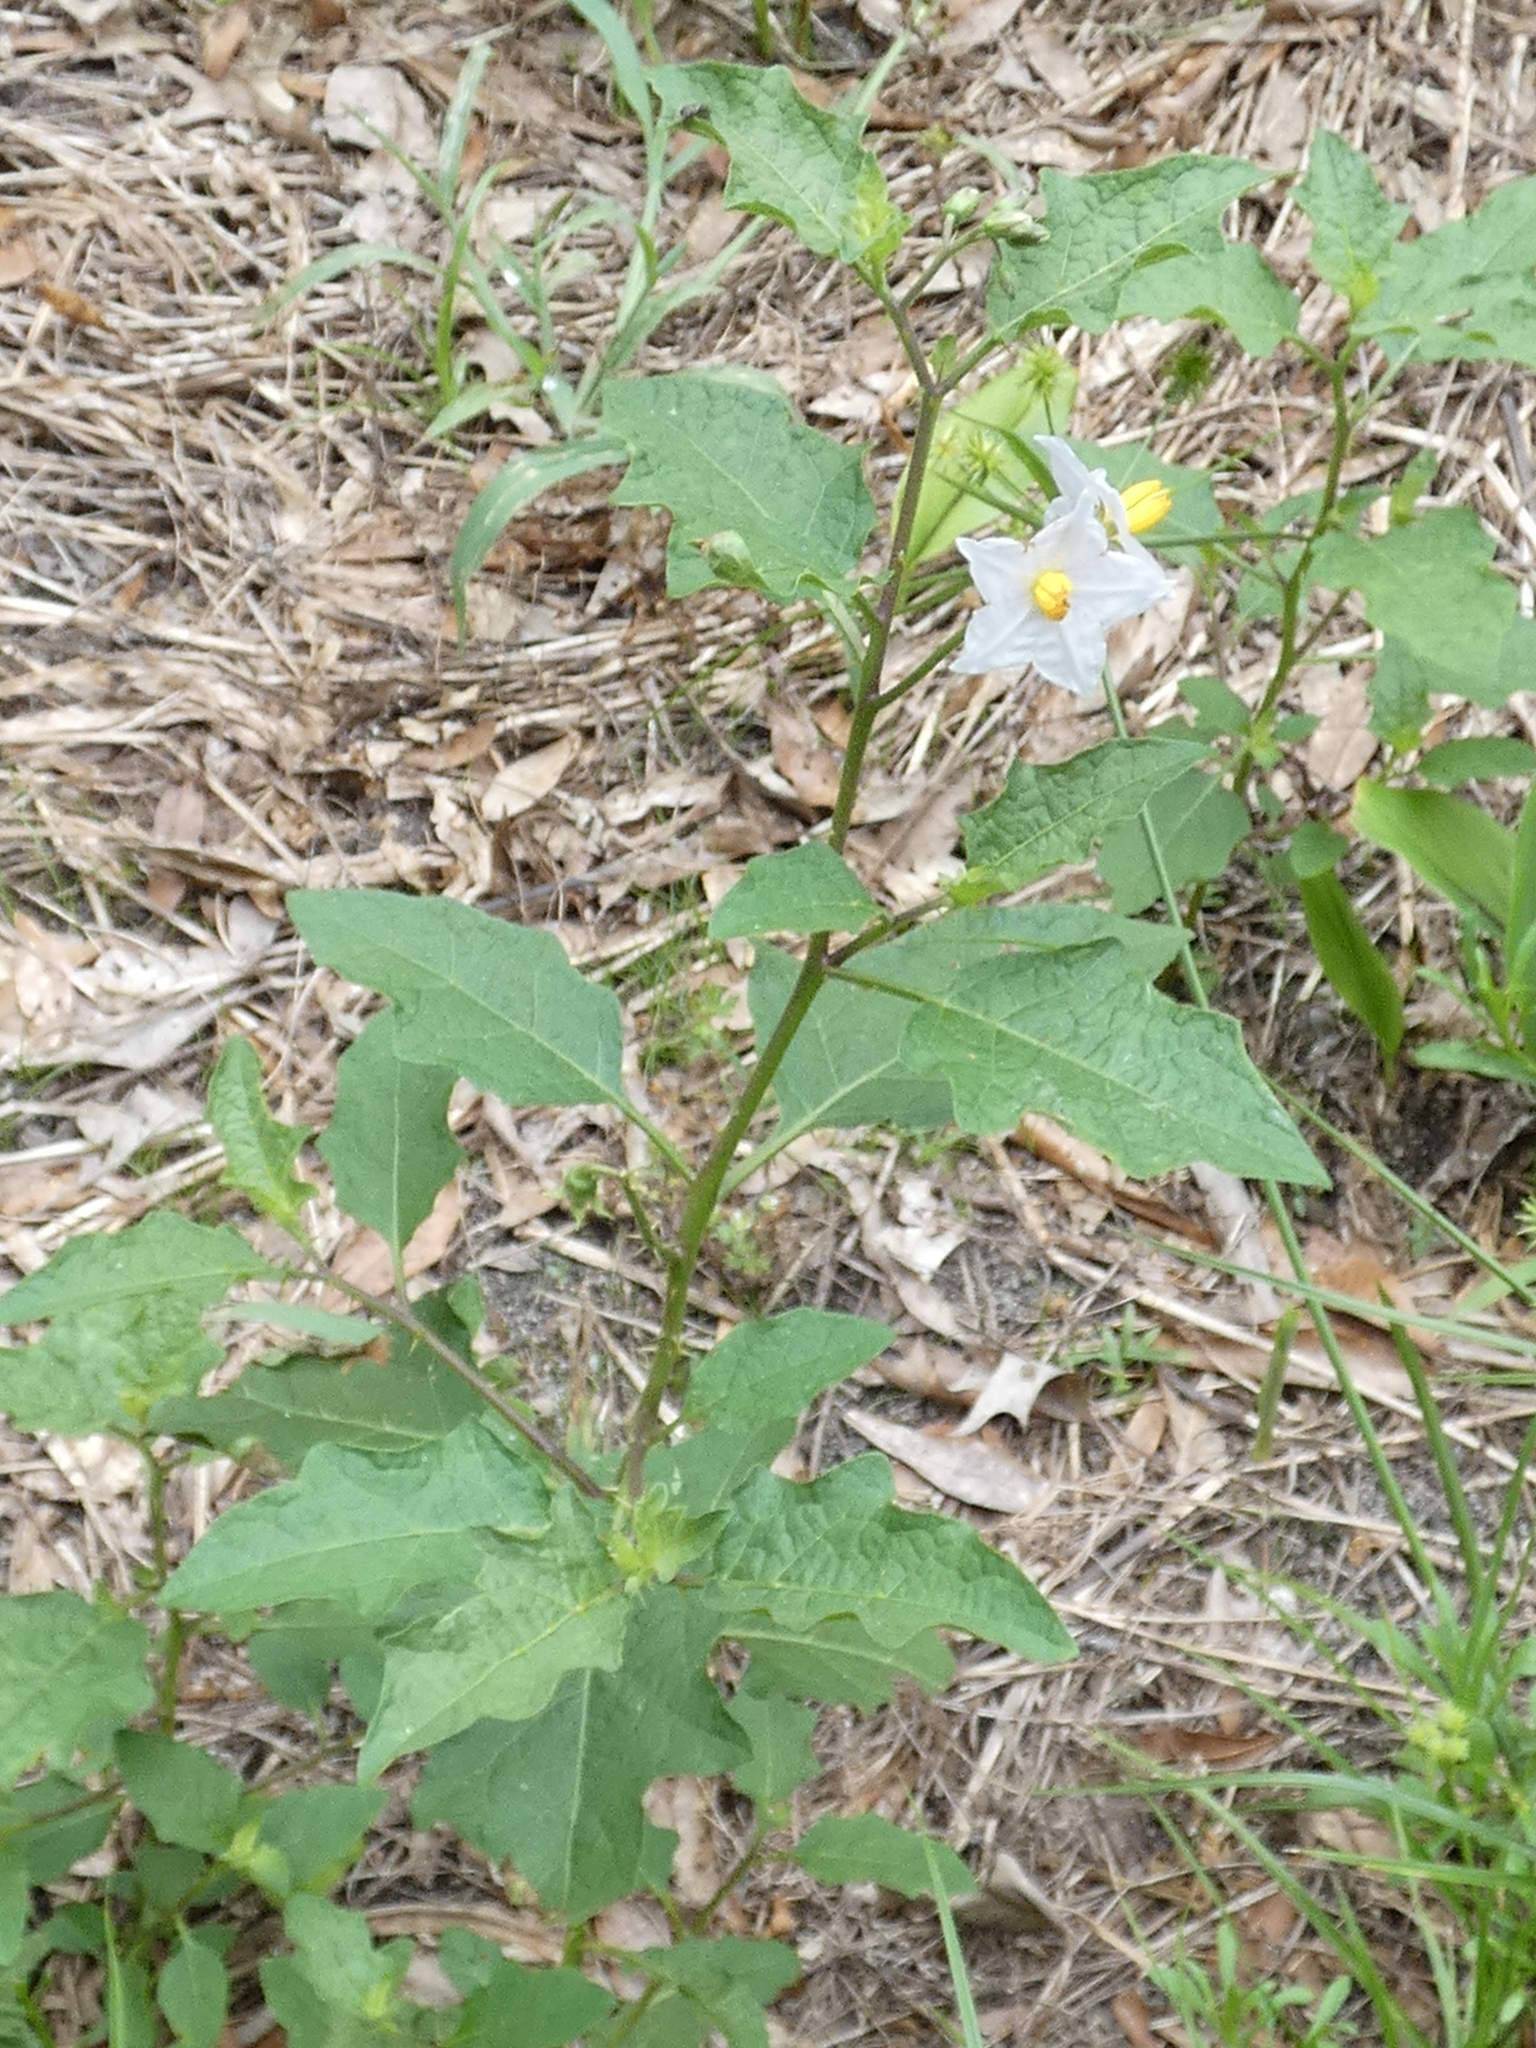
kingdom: Plantae
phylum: Tracheophyta
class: Magnoliopsida
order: Solanales
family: Solanaceae
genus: Solanum
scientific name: Solanum carolinense
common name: Horse-nettle
